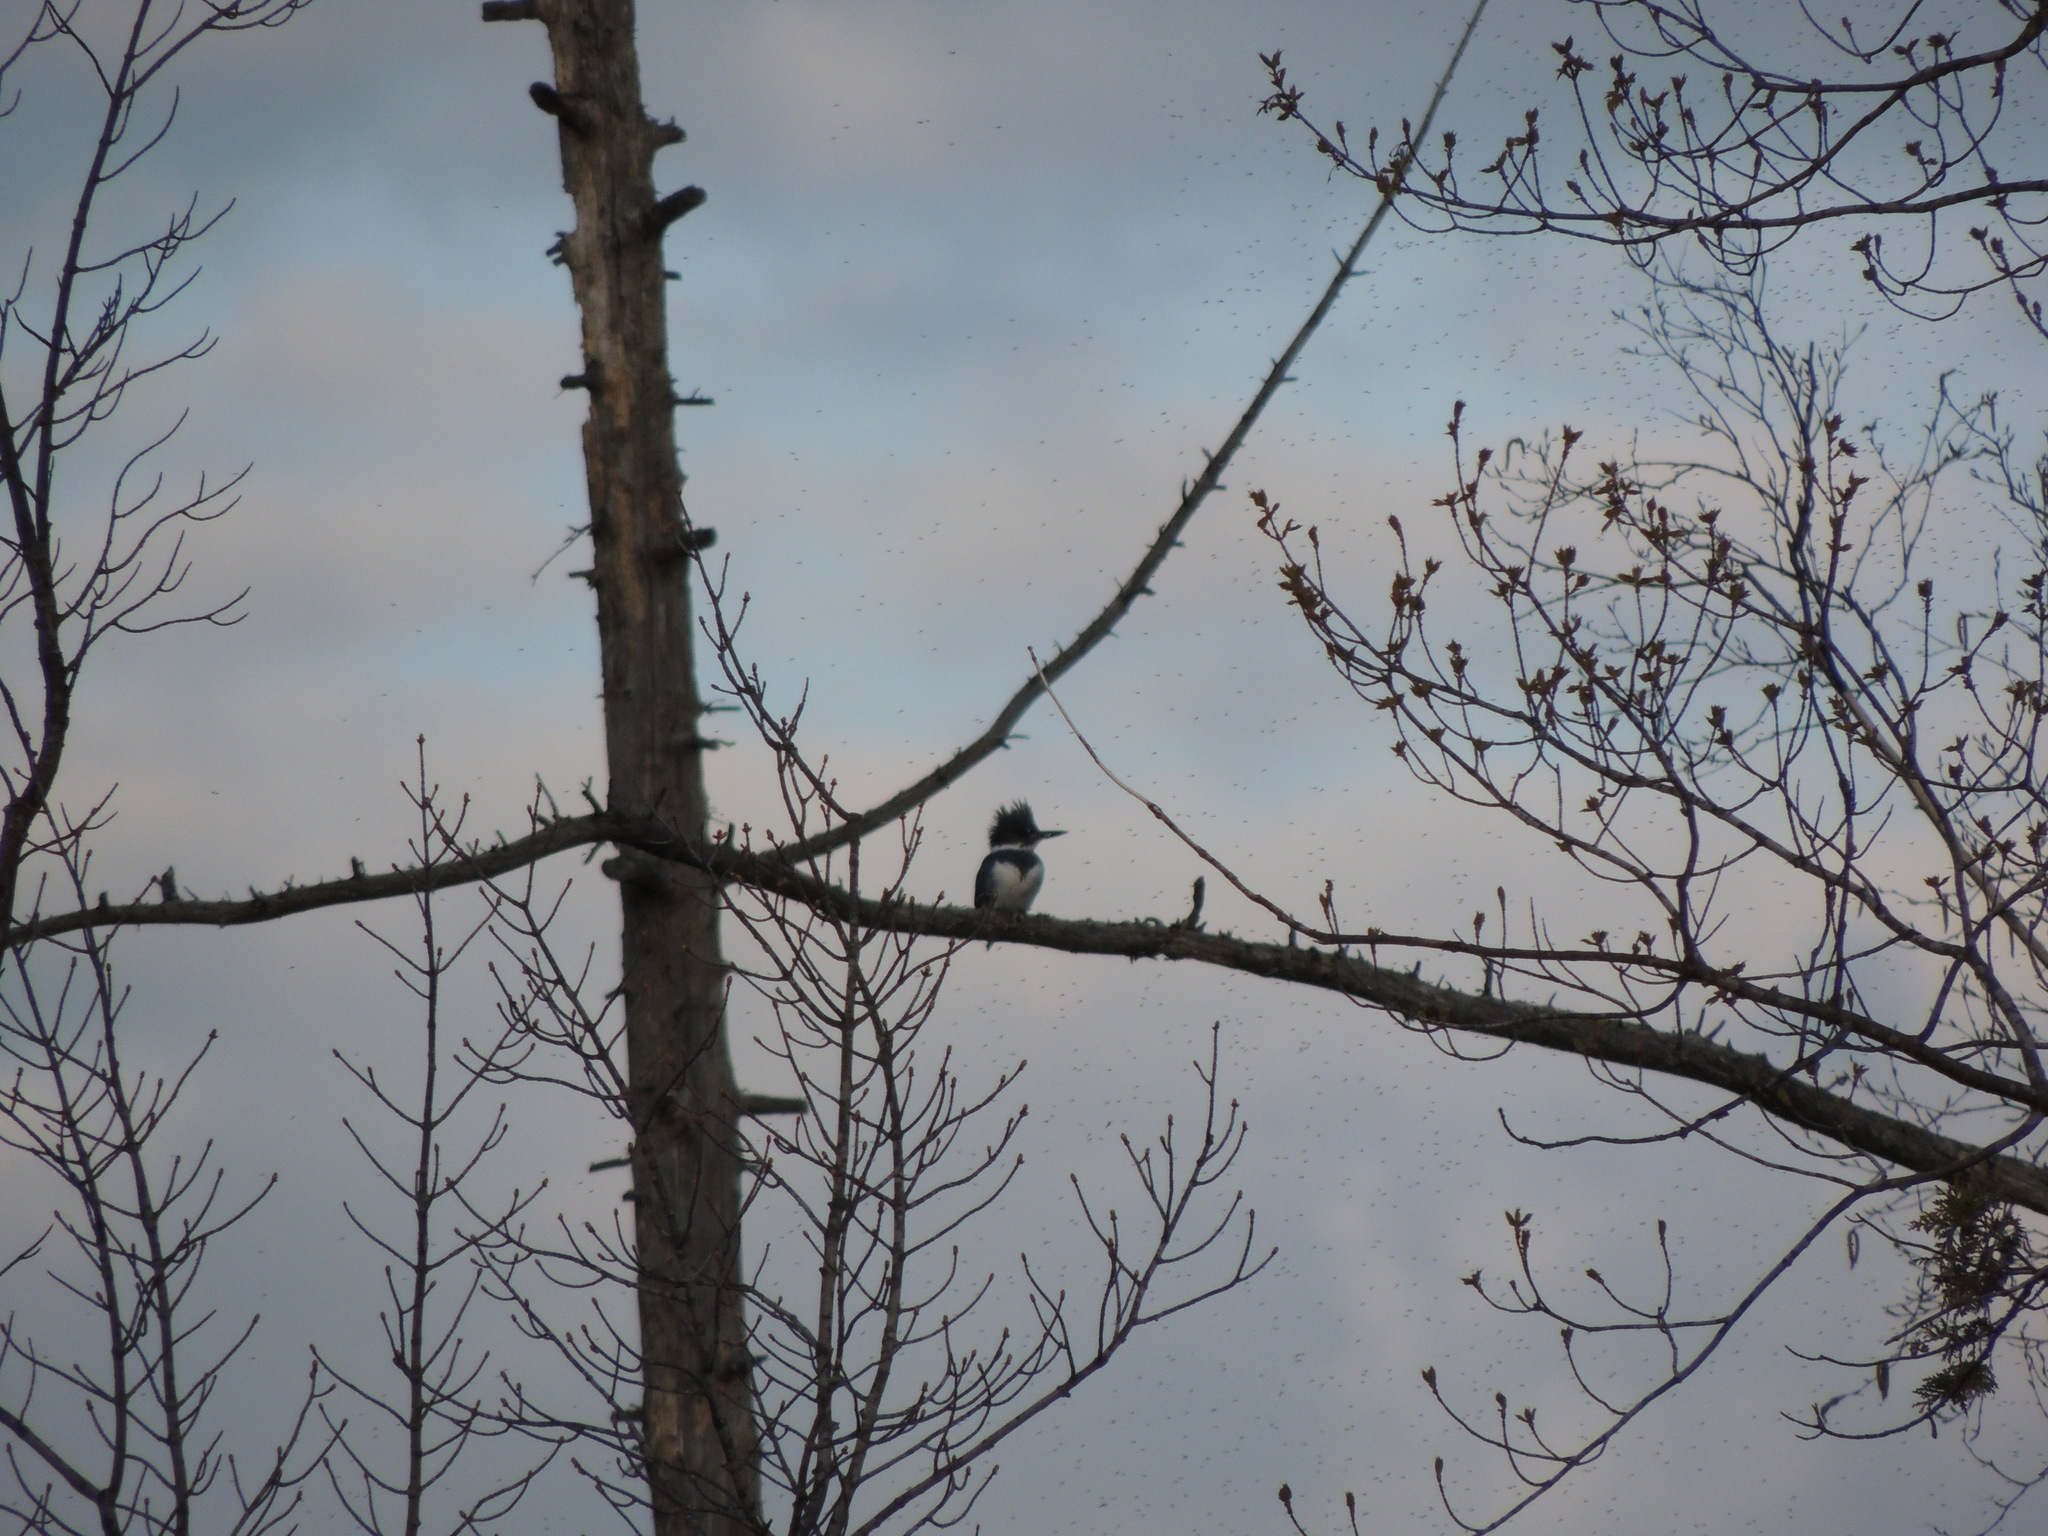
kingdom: Animalia
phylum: Chordata
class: Aves
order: Coraciiformes
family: Alcedinidae
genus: Megaceryle
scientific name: Megaceryle alcyon
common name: Belted kingfisher
